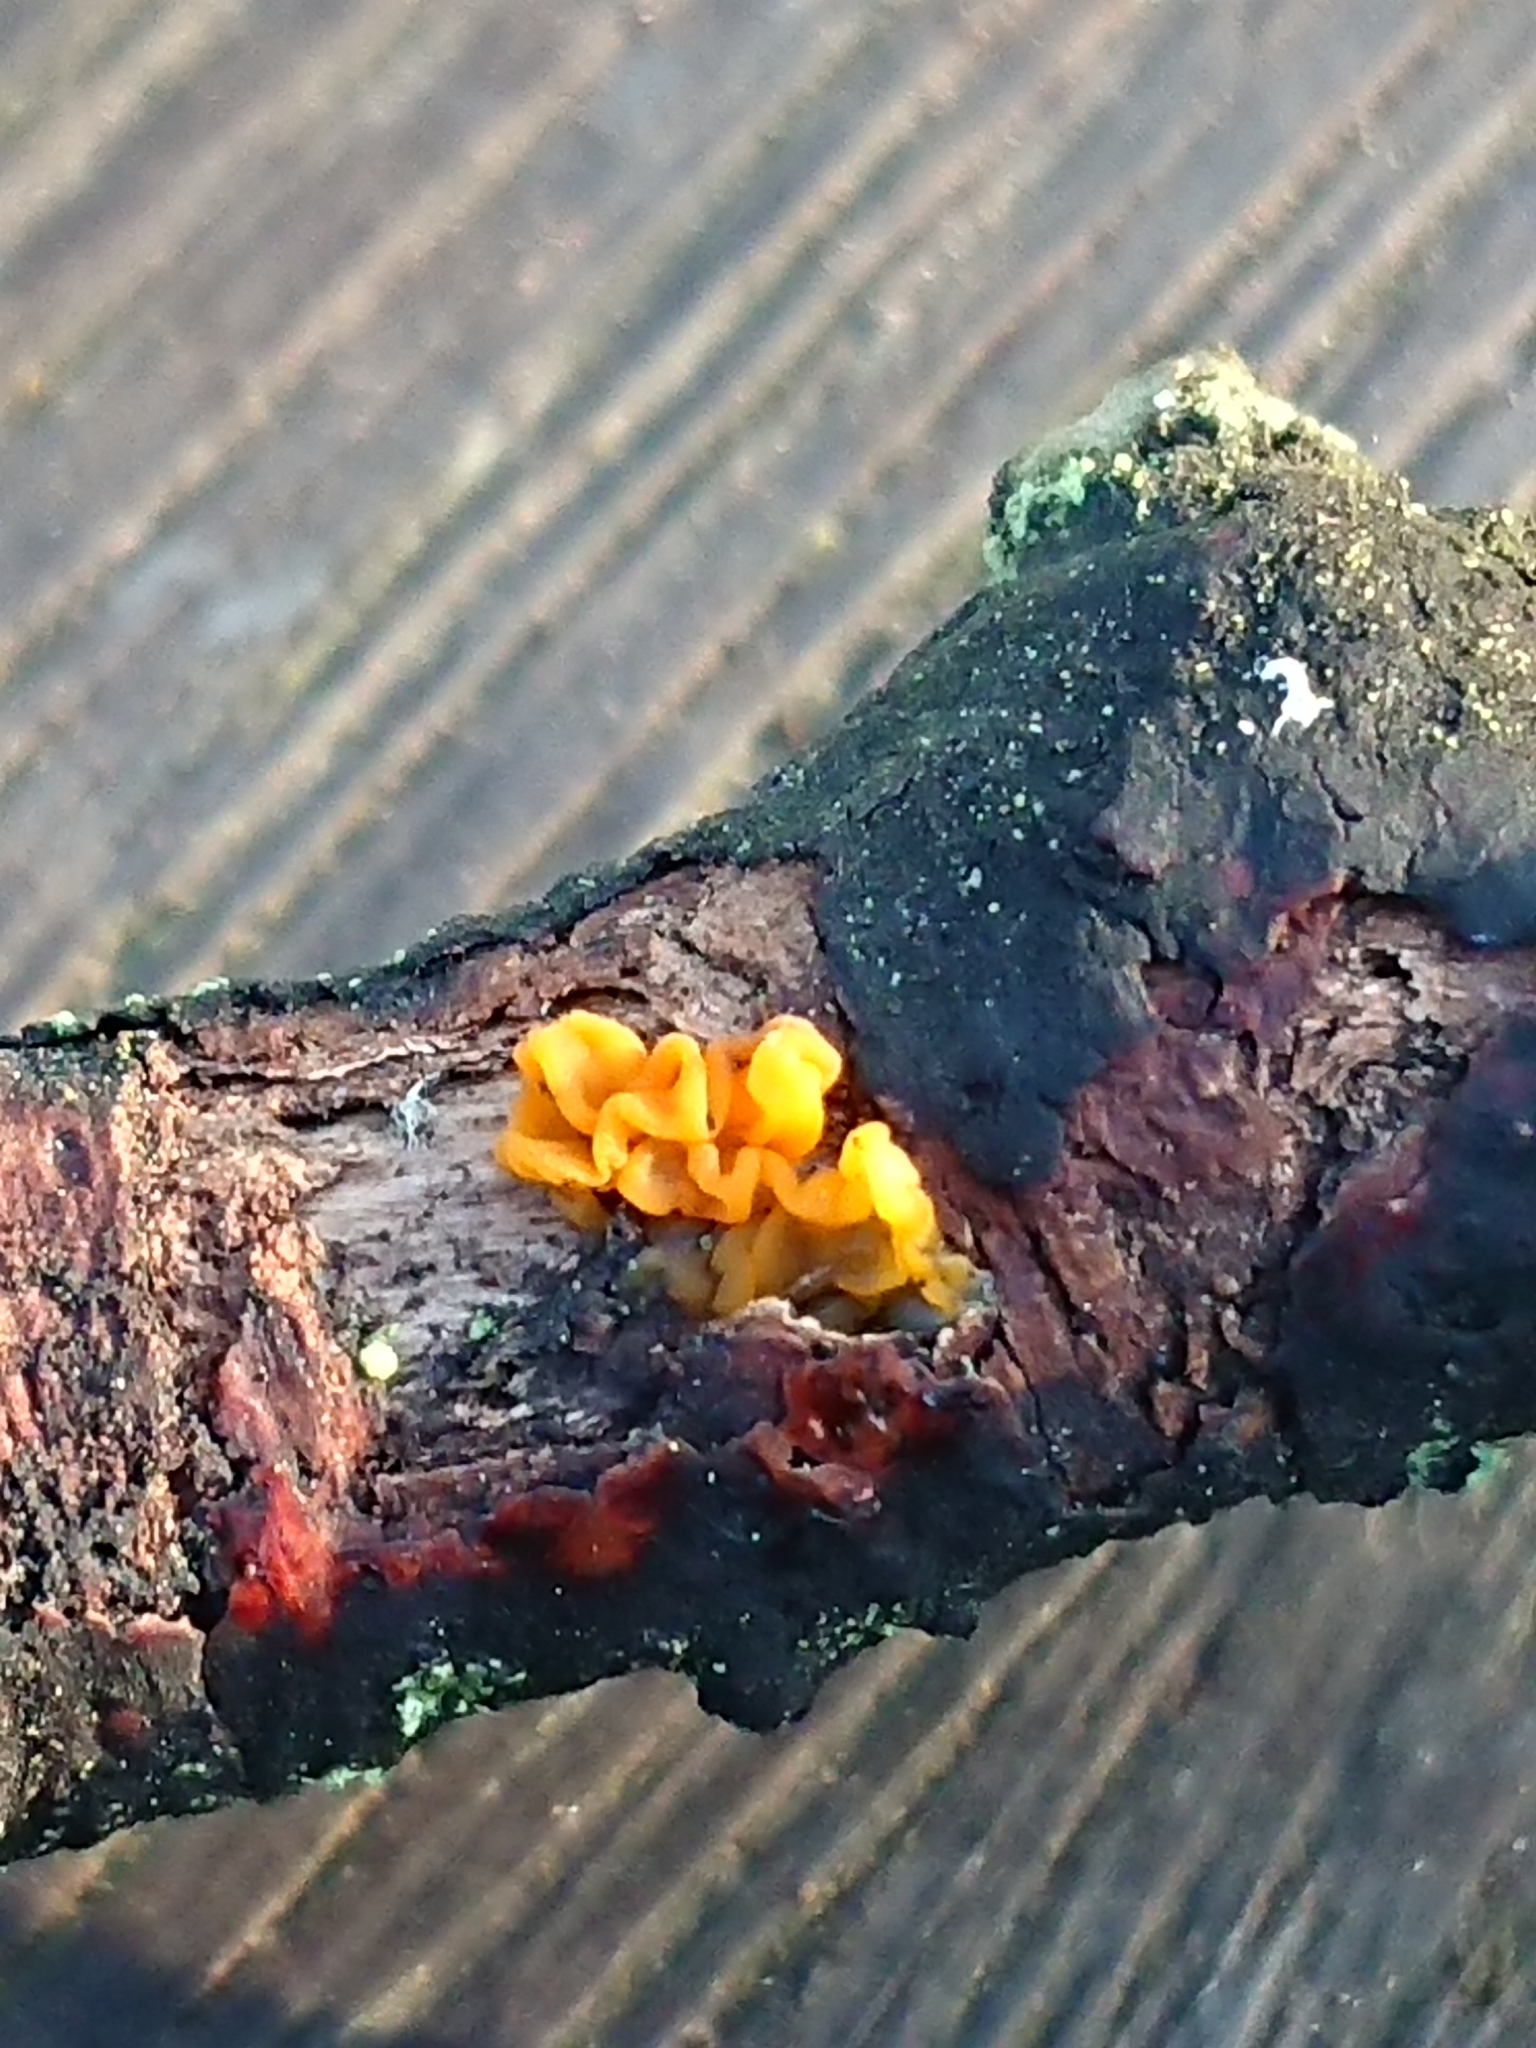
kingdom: Fungi
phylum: Basidiomycota
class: Tremellomycetes
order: Tremellales
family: Tremellaceae
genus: Tremella
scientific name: Tremella mesenterica
